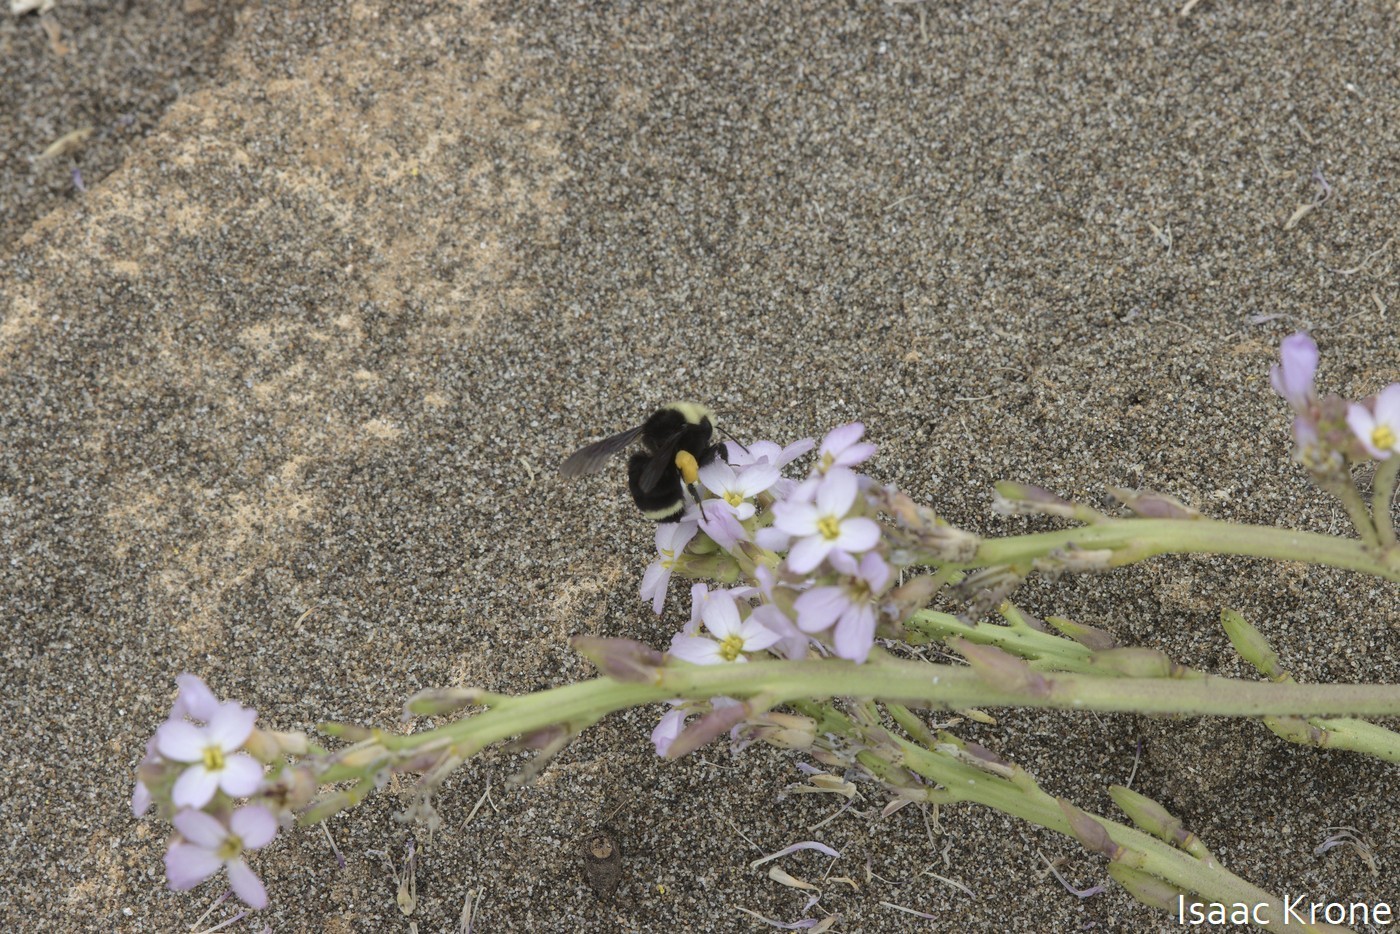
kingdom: Animalia
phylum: Arthropoda
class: Insecta
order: Hymenoptera
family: Apidae
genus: Bombus
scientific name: Bombus vosnesenskii
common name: Vosnesensky bumble bee
